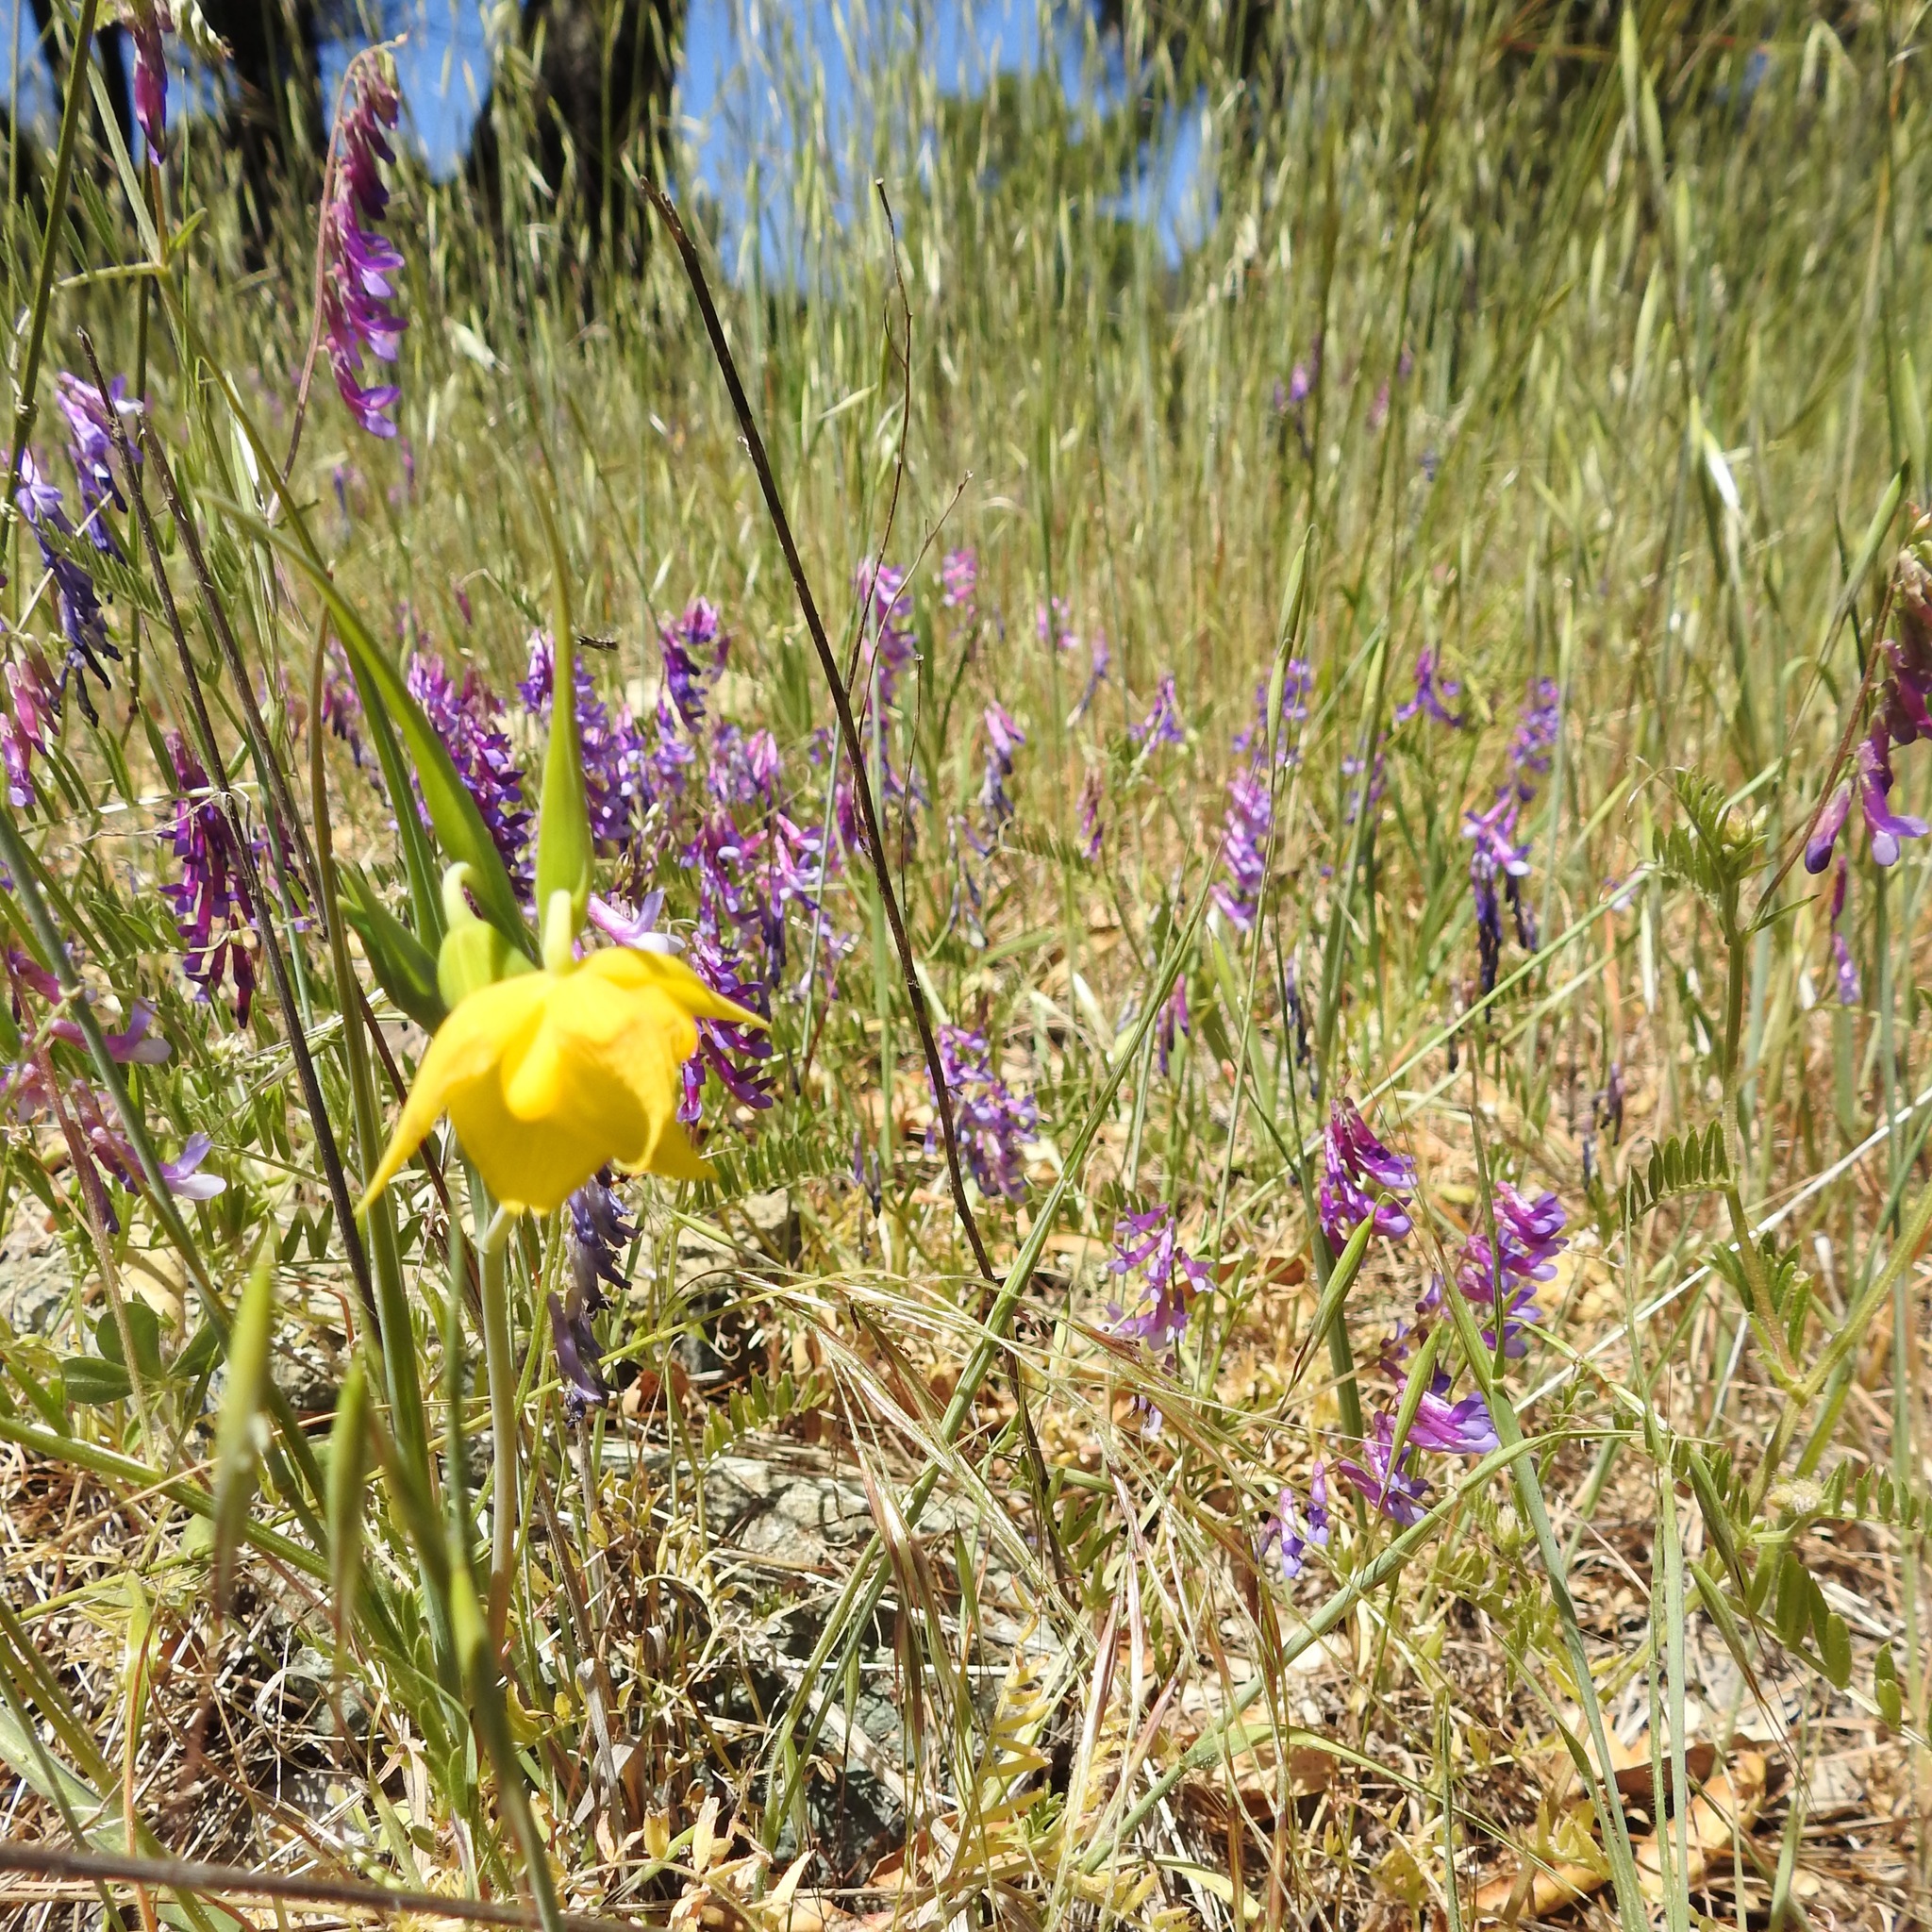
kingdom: Plantae
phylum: Tracheophyta
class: Liliopsida
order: Liliales
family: Liliaceae
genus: Calochortus
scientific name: Calochortus amabilis
